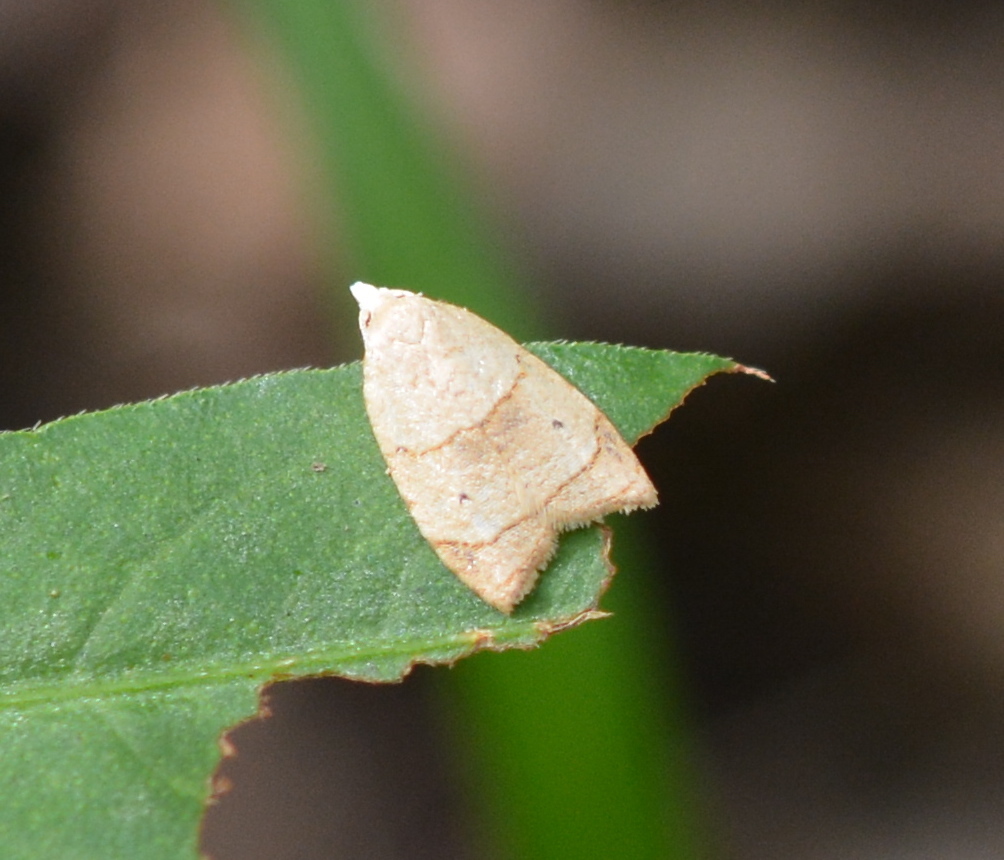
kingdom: Animalia
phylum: Arthropoda
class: Insecta
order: Lepidoptera
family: Tortricidae
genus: Coelostathma
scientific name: Coelostathma discopunctana
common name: Batman moth
